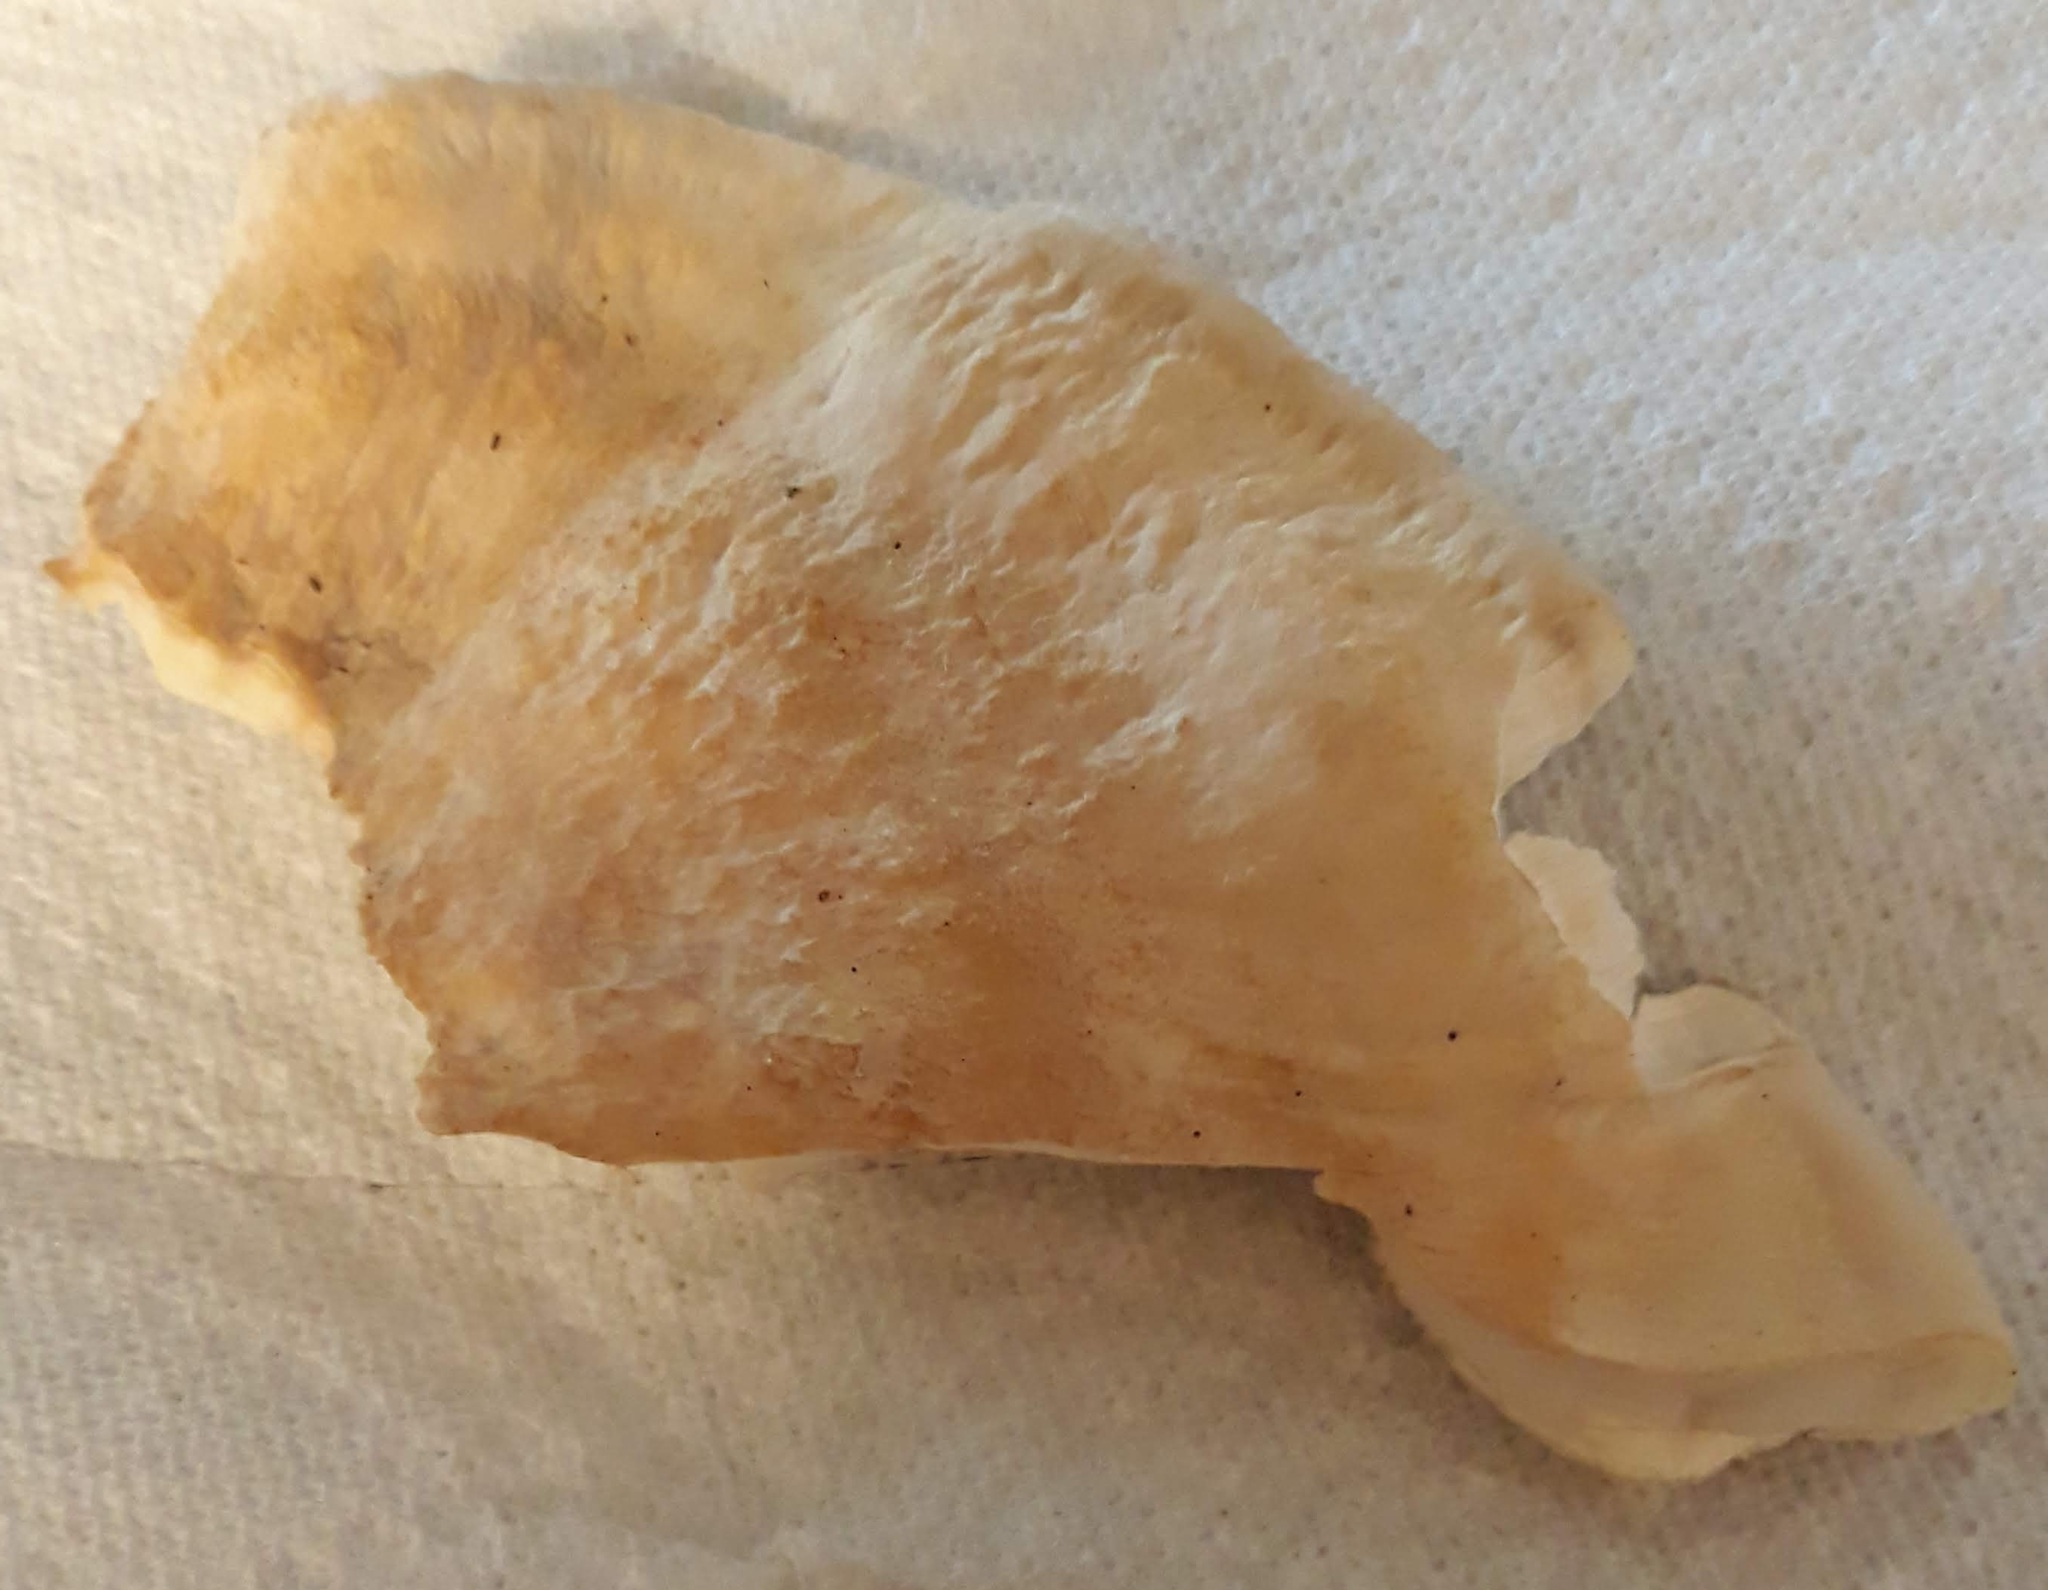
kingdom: Fungi
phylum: Basidiomycota
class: Agaricomycetes
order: Russulales
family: Bondarzewiaceae
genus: Bondarzewia
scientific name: Bondarzewia berkeleyi
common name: Berkeley's polypore
